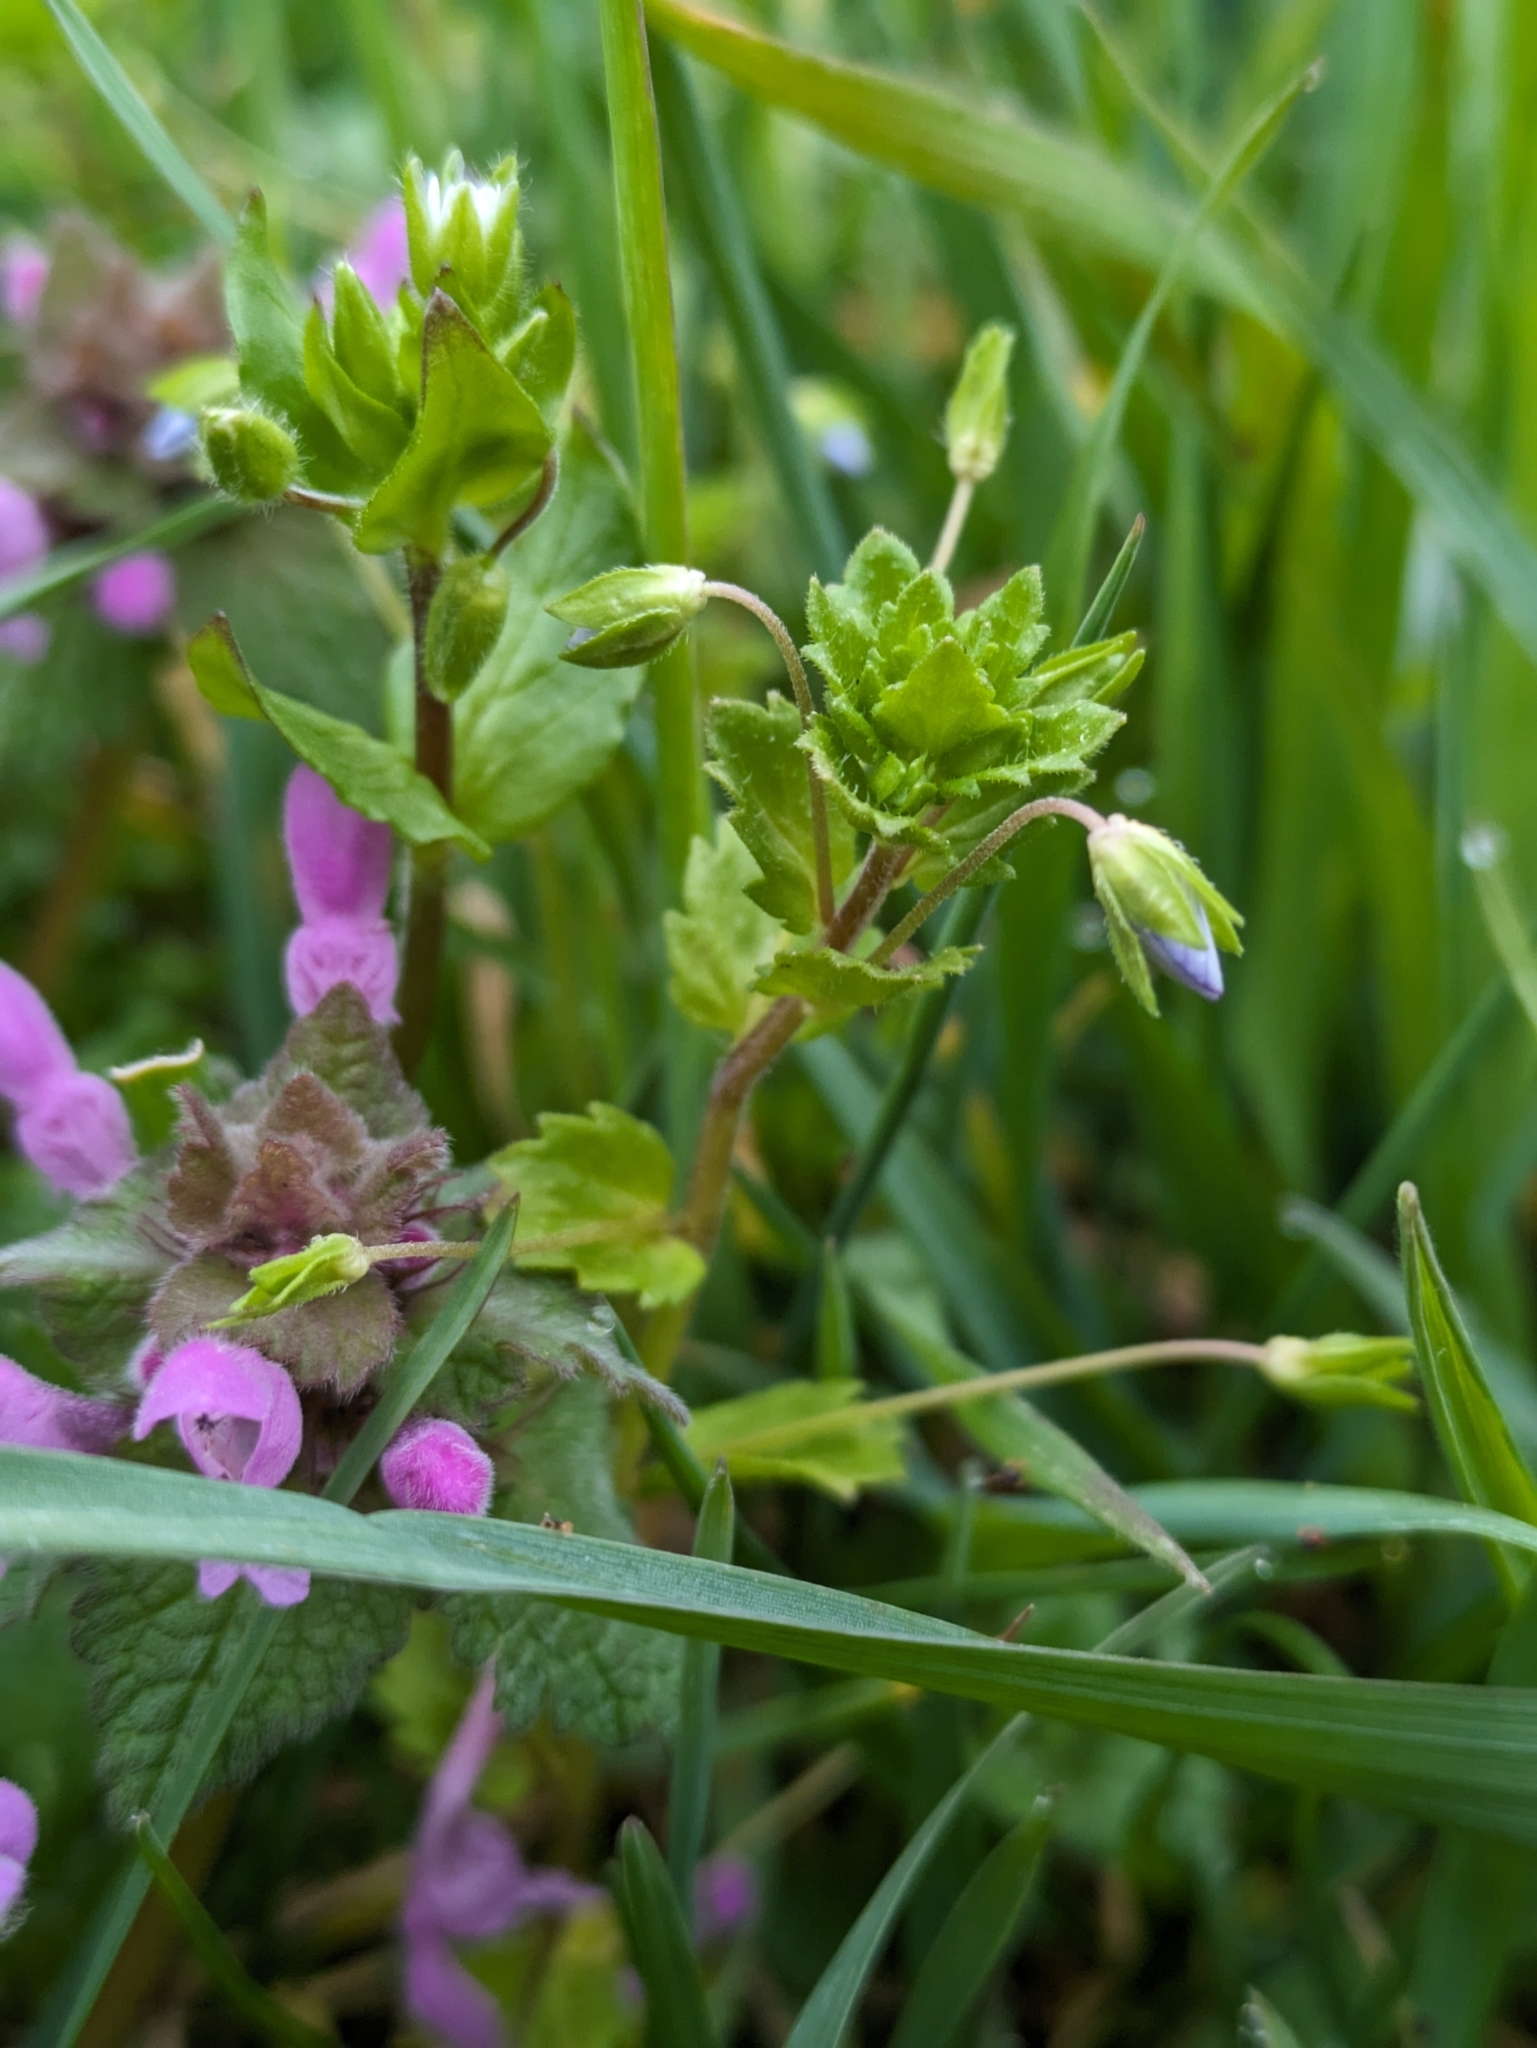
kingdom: Plantae
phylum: Tracheophyta
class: Magnoliopsida
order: Lamiales
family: Plantaginaceae
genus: Veronica
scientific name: Veronica persica
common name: Common field-speedwell
